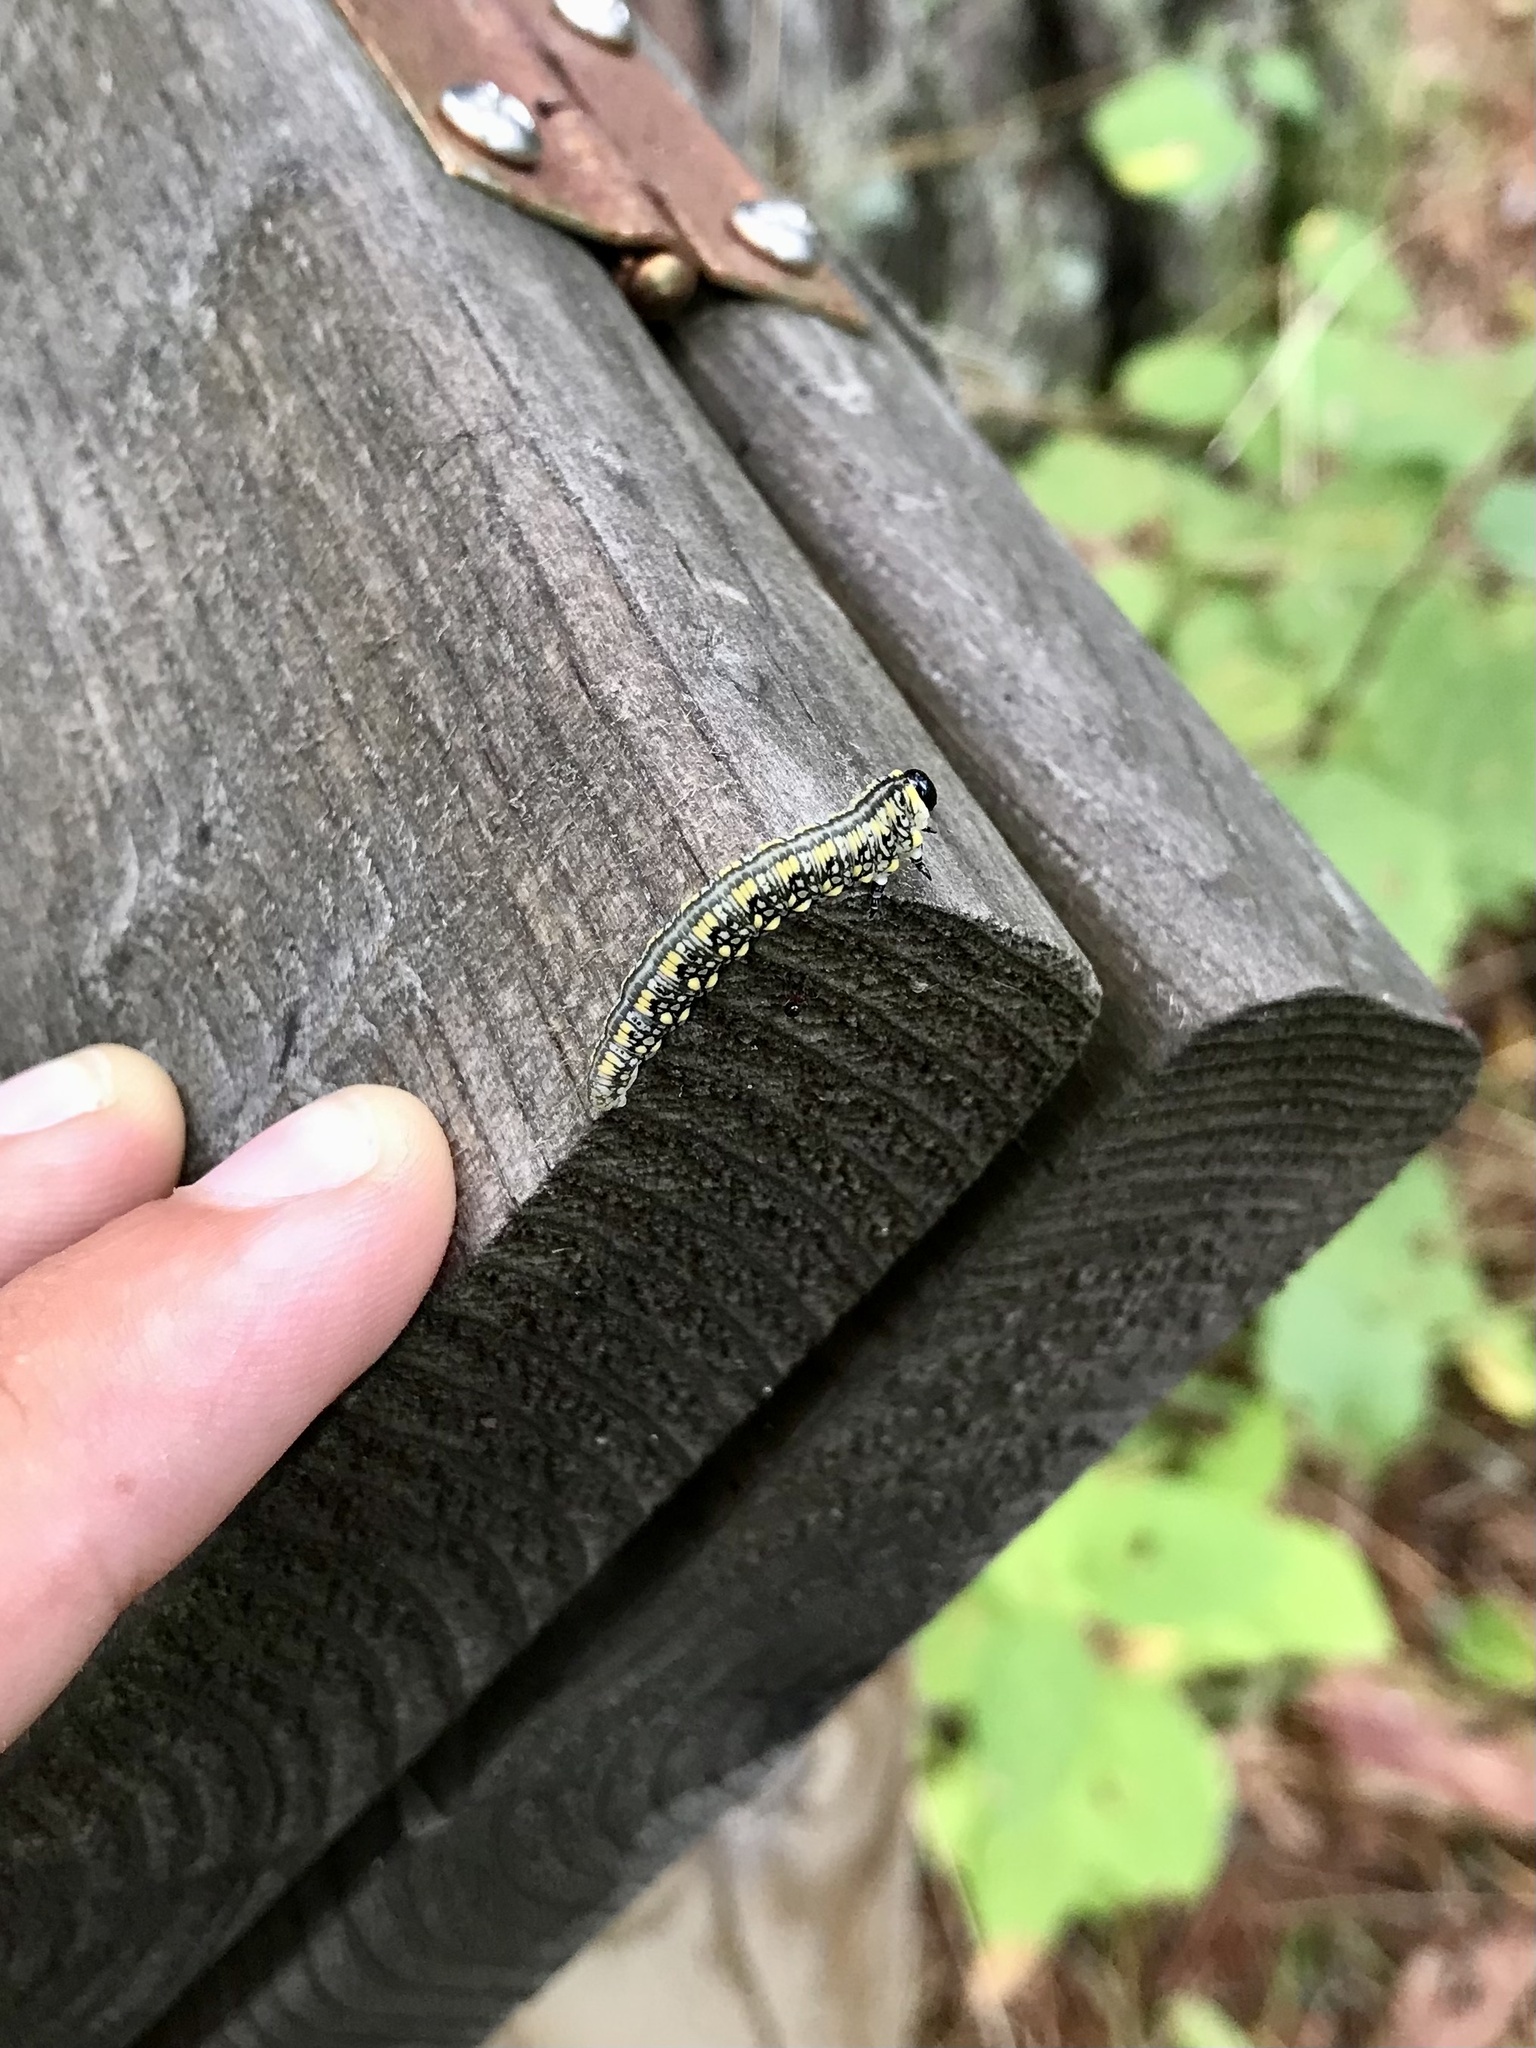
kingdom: Animalia
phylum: Arthropoda
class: Insecta
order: Hymenoptera
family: Diprionidae
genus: Diprion
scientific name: Diprion similis
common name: Pine sawfly
